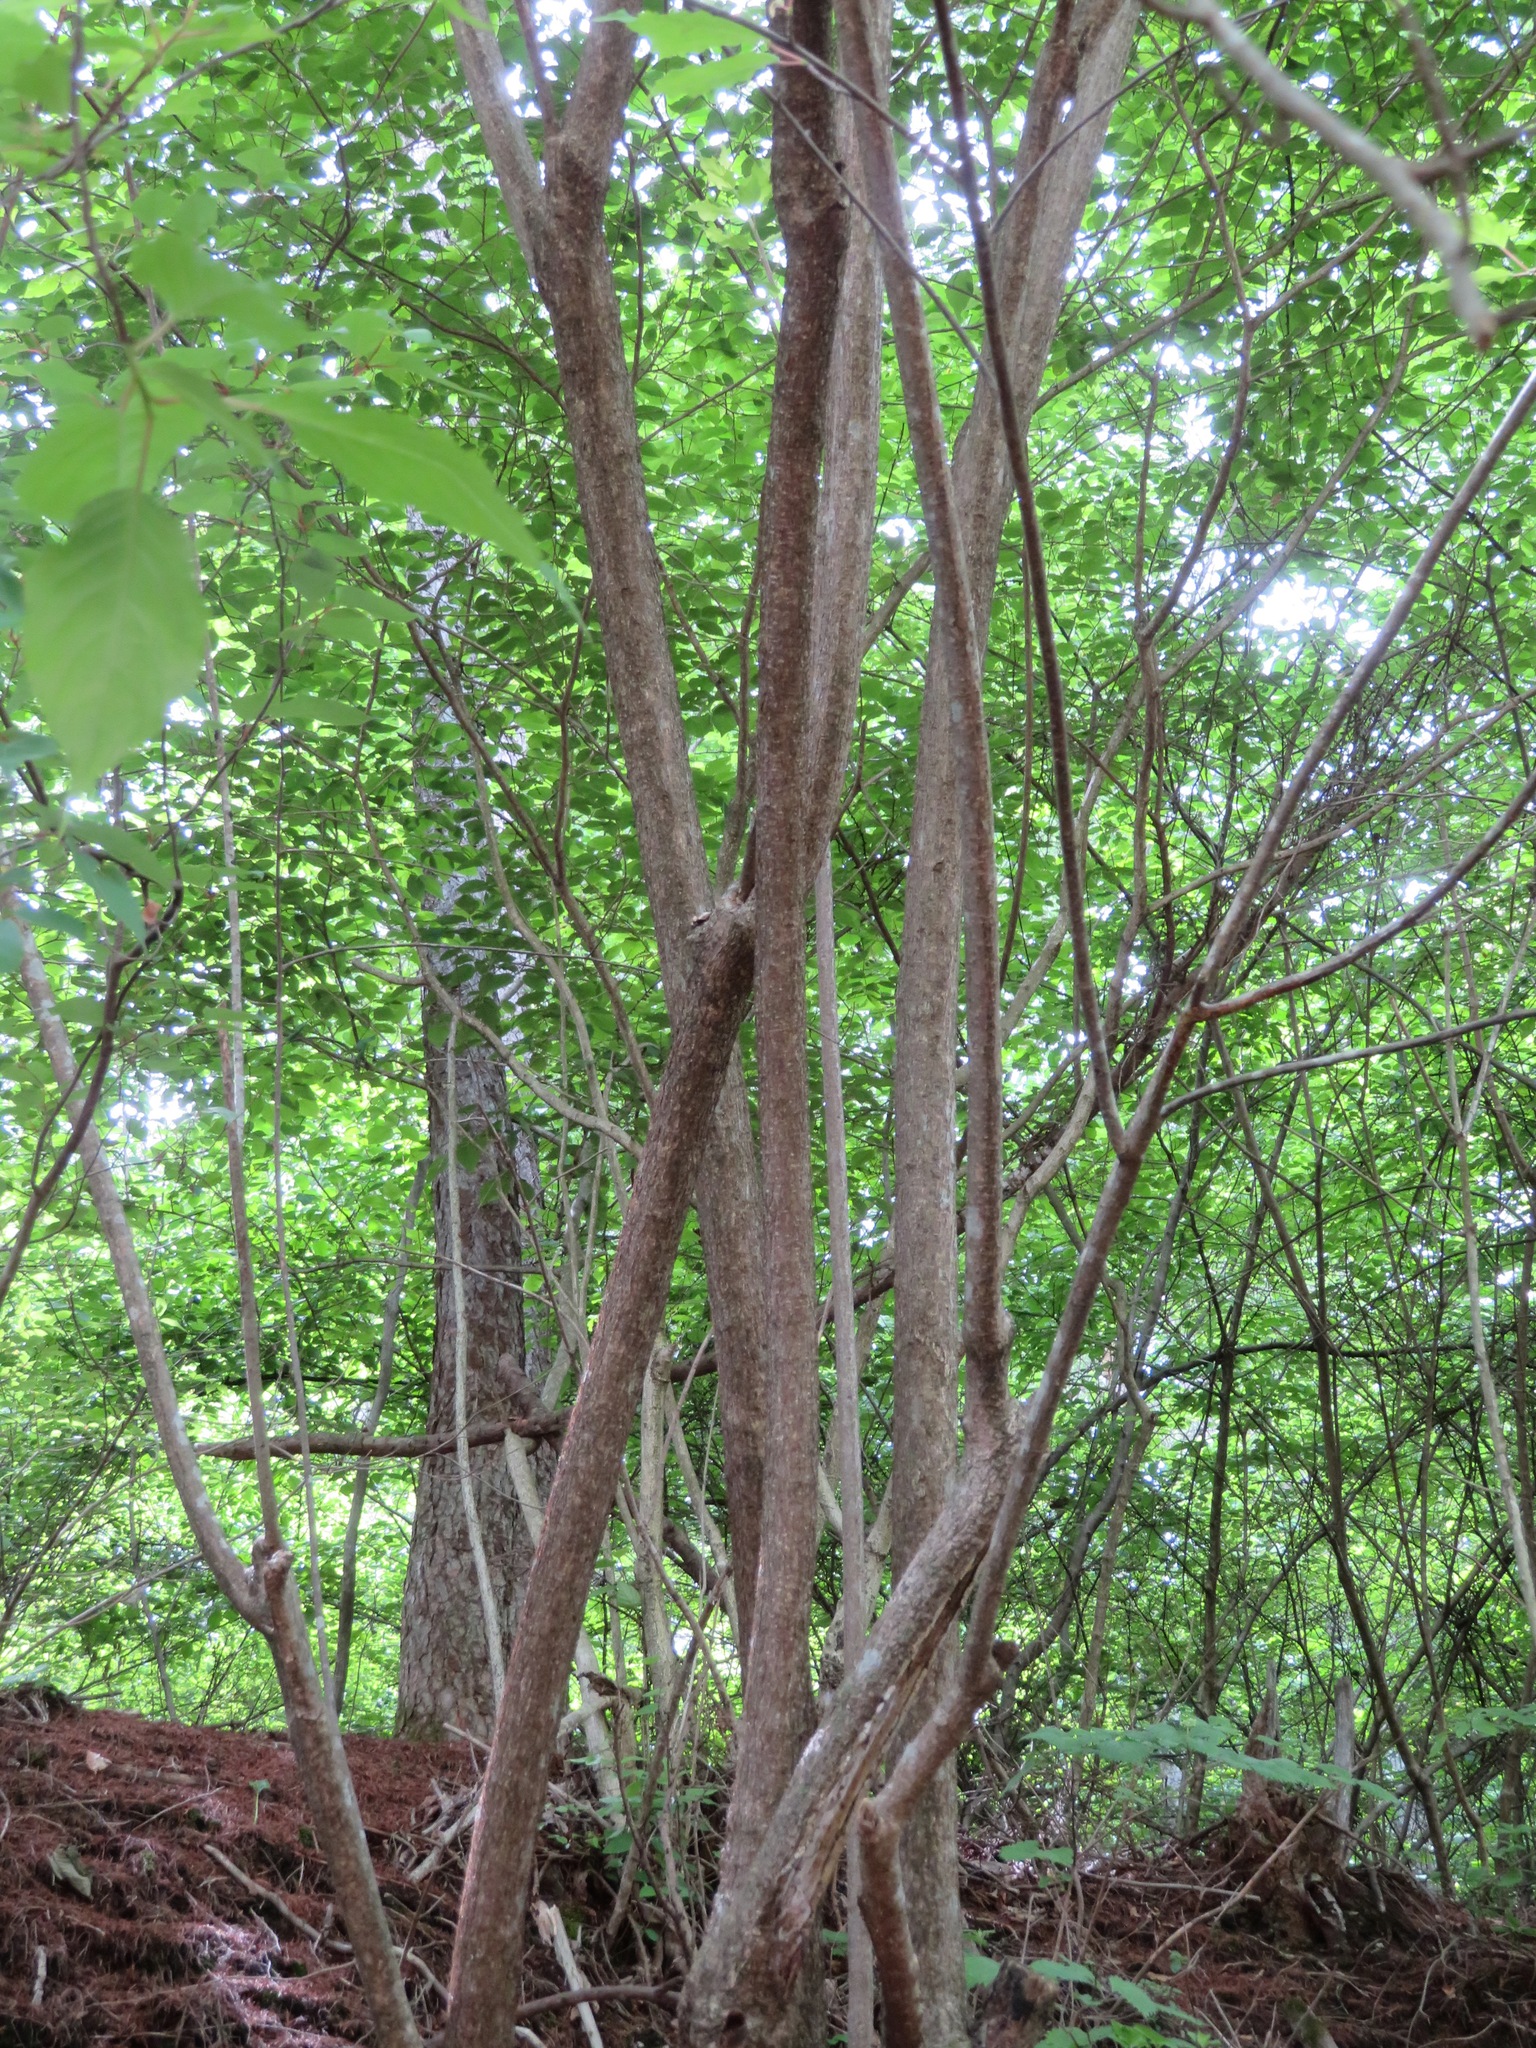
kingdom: Plantae
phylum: Tracheophyta
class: Magnoliopsida
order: Crossosomatales
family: Stachyuraceae
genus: Stachyurus
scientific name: Stachyurus praecox
